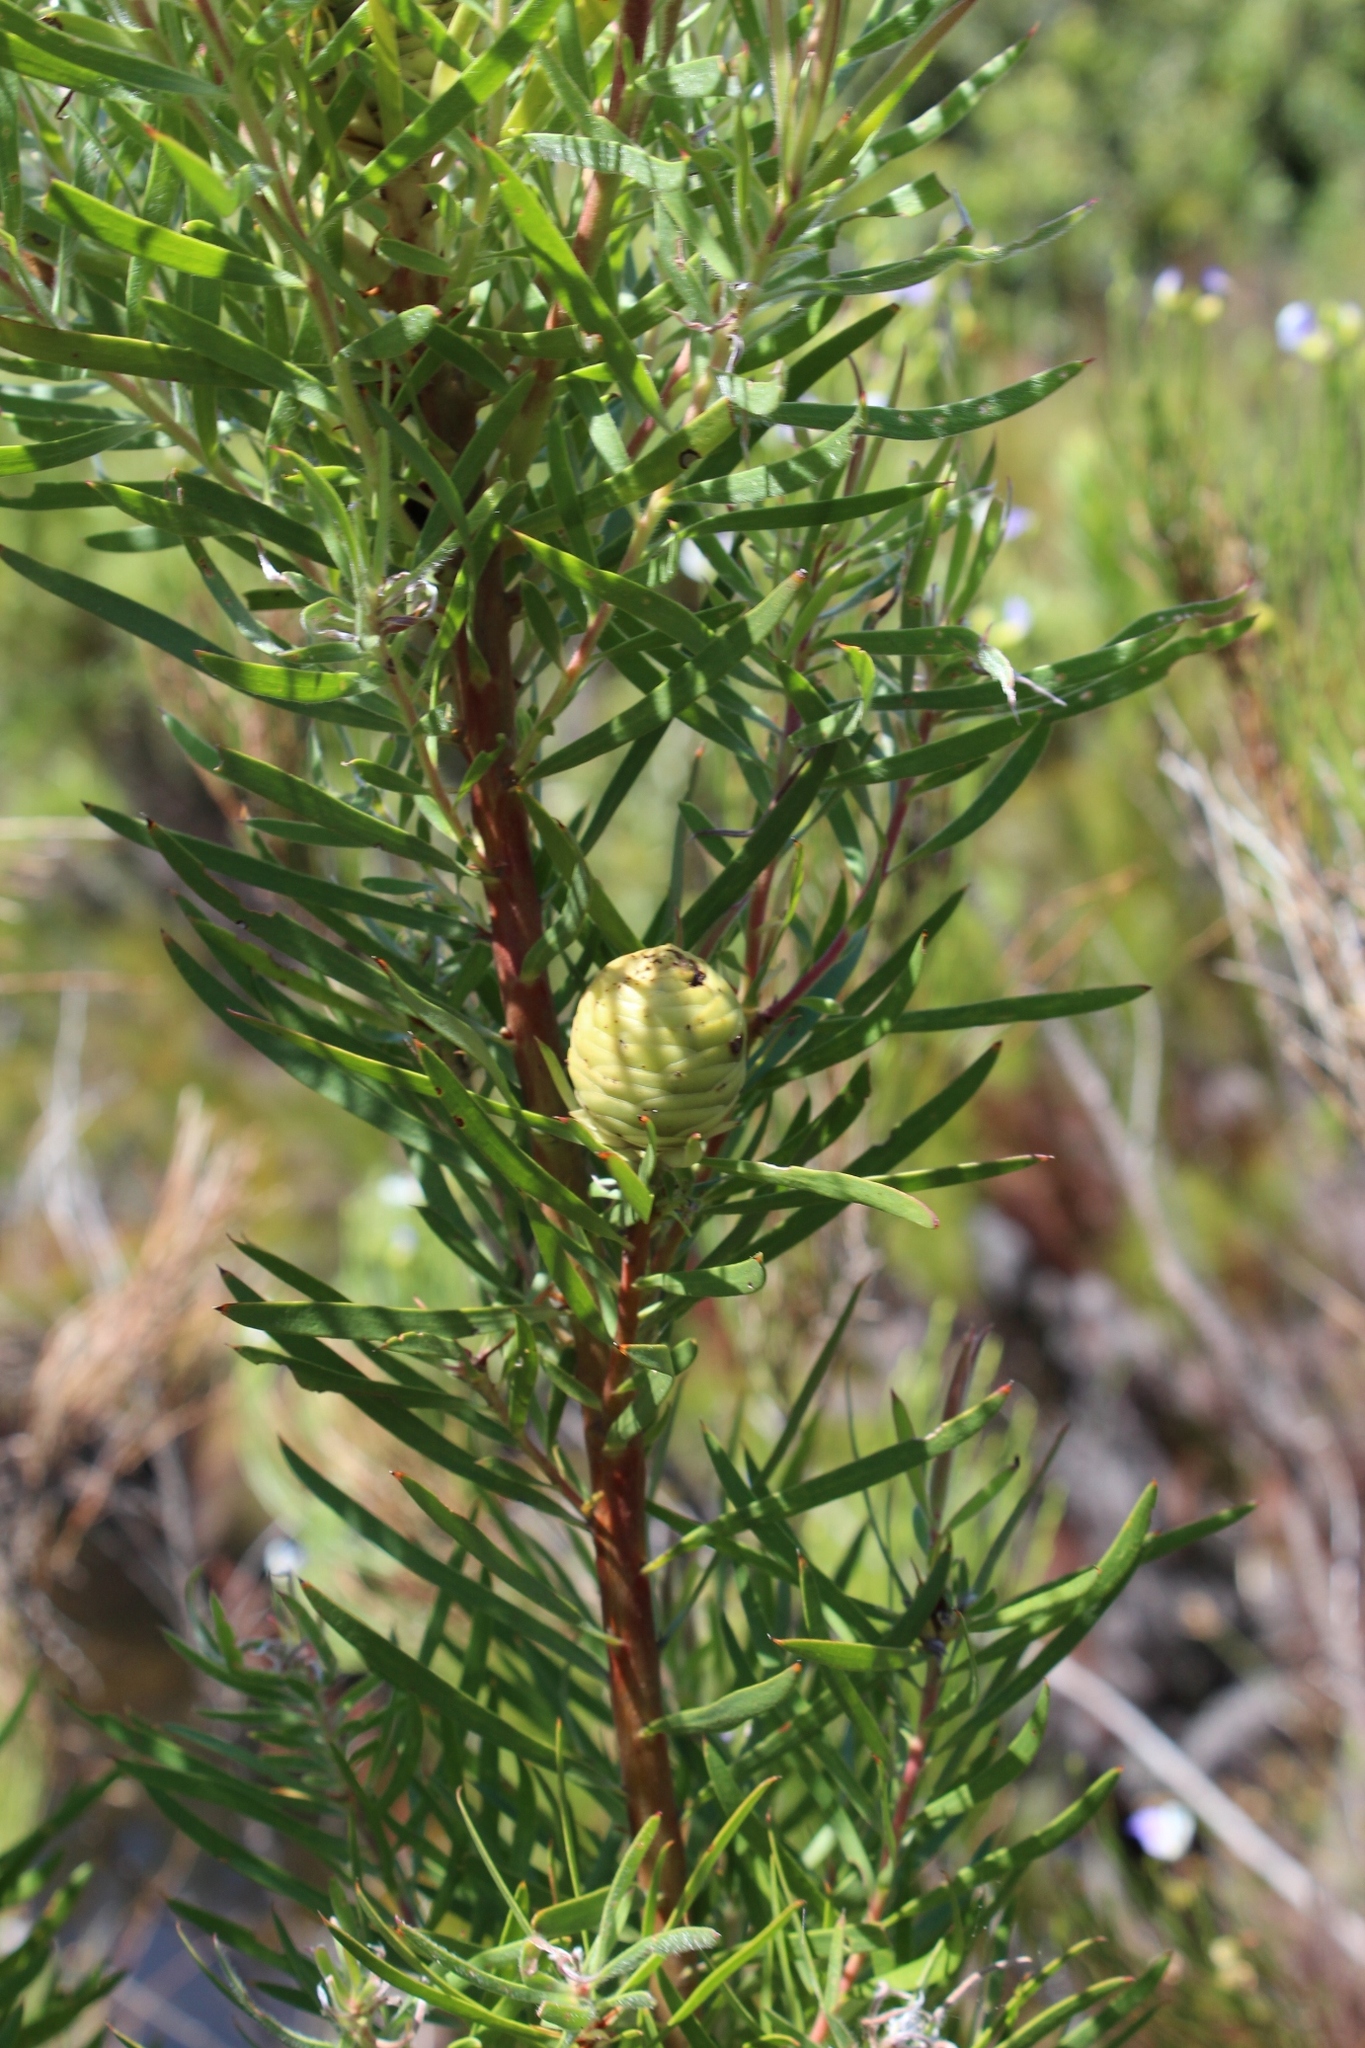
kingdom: Plantae
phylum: Tracheophyta
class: Magnoliopsida
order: Proteales
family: Proteaceae
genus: Leucadendron
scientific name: Leucadendron salicifolium
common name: Common stream conebush
